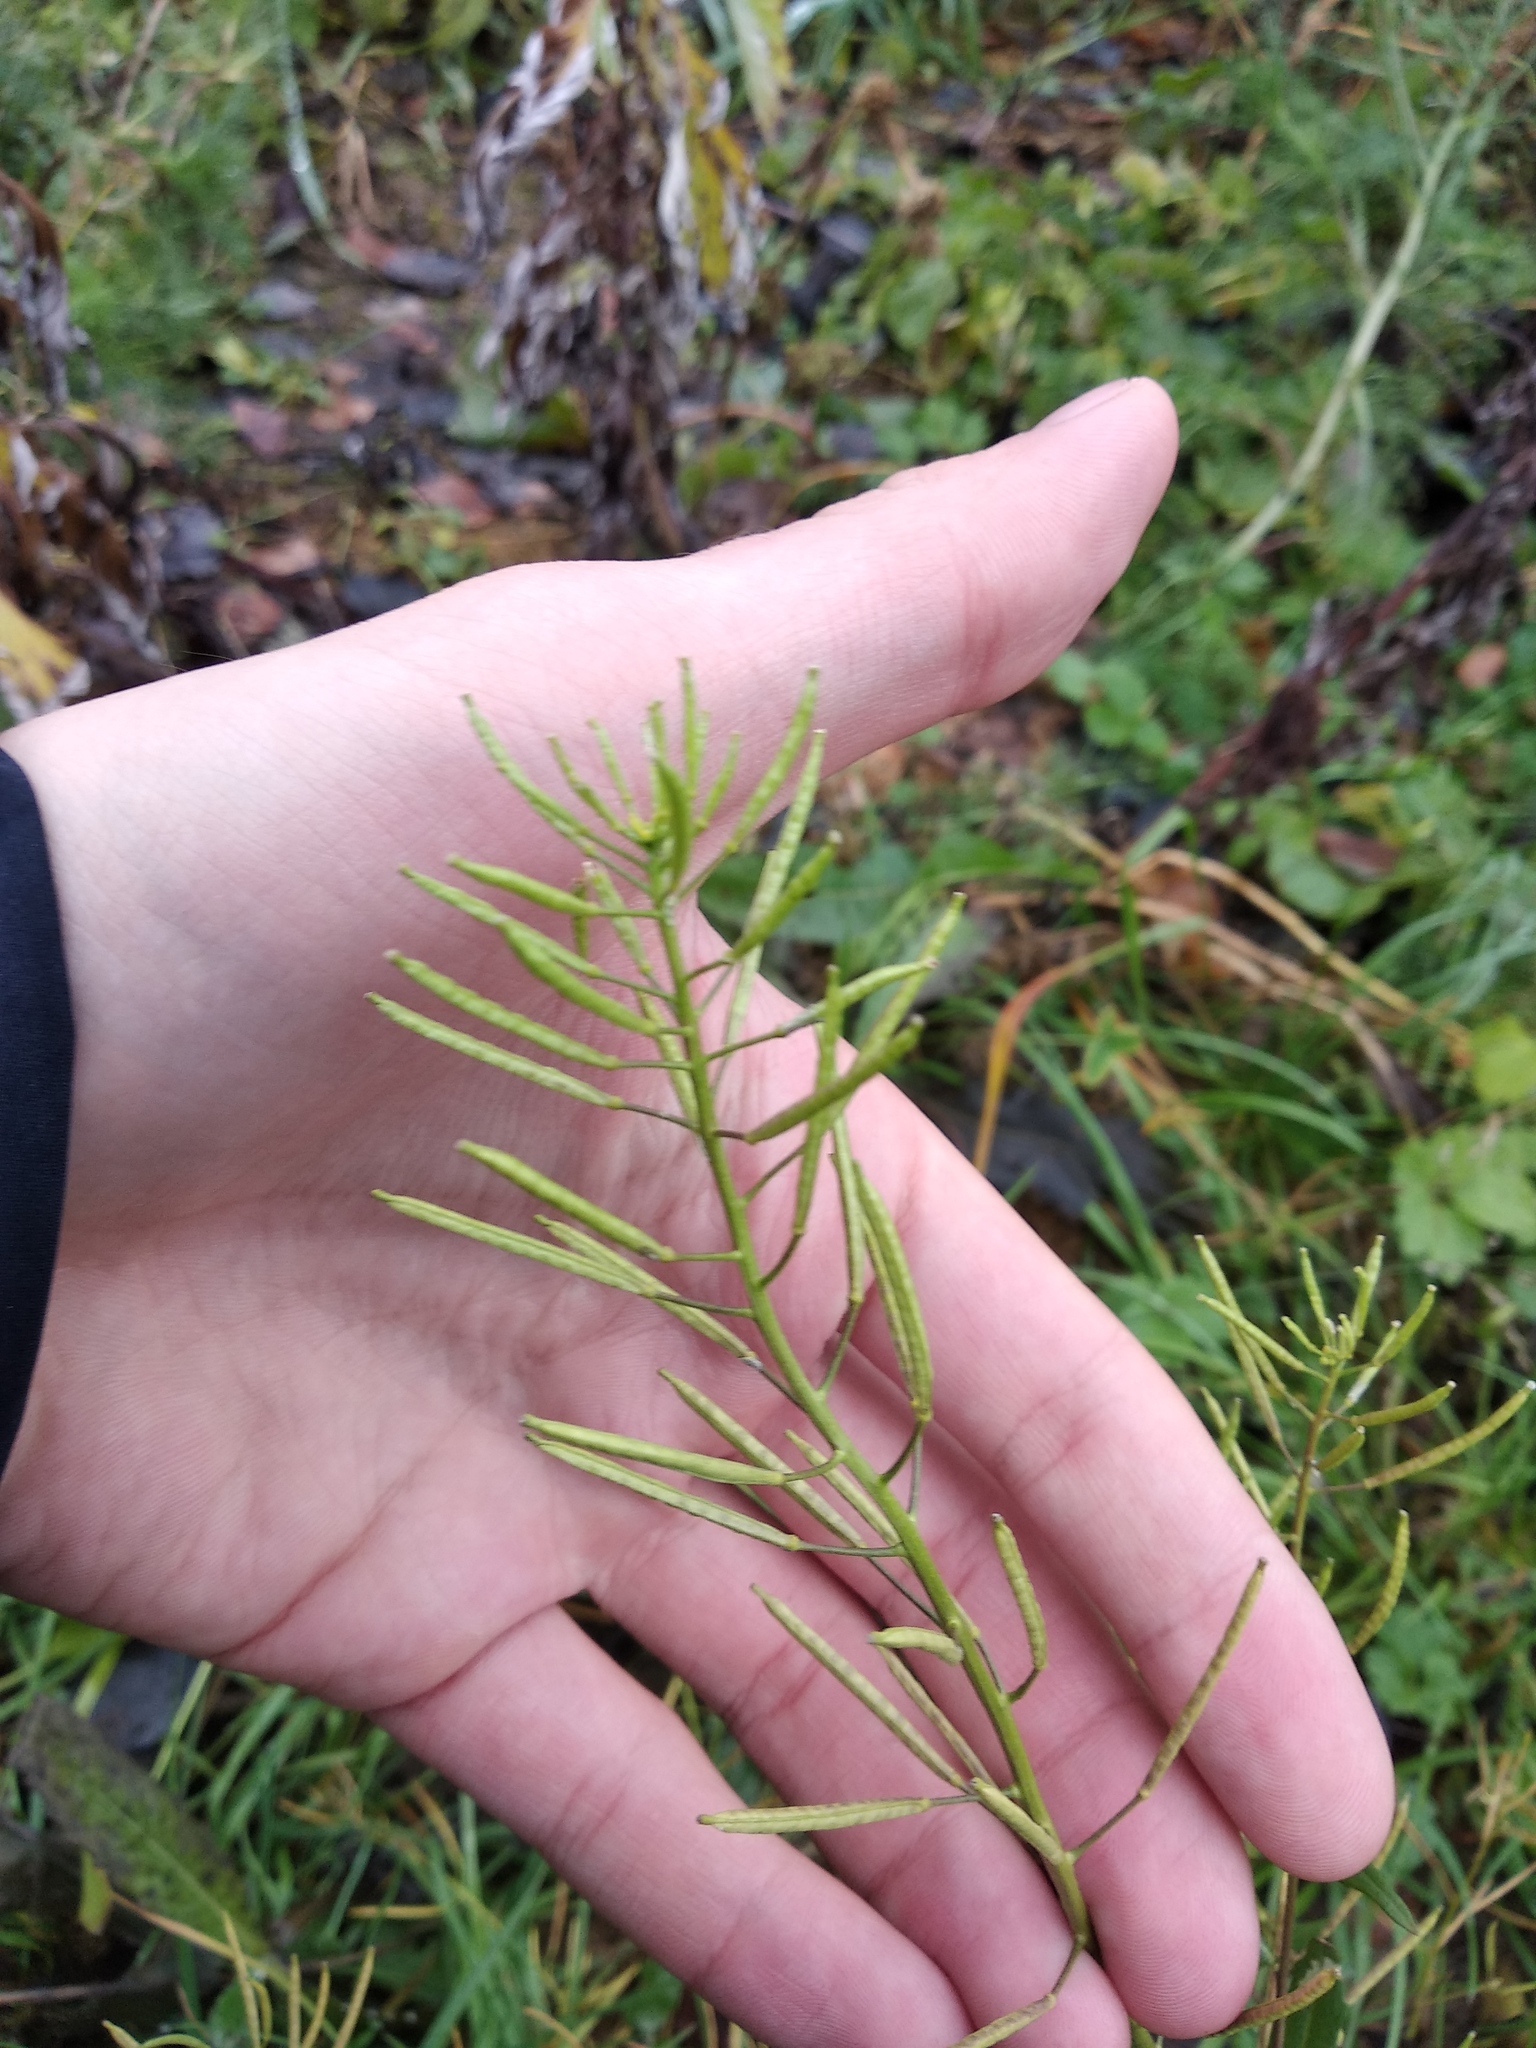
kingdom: Plantae
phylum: Tracheophyta
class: Magnoliopsida
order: Brassicales
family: Brassicaceae
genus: Erysimum
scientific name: Erysimum cheiranthoides
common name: Treacle mustard
